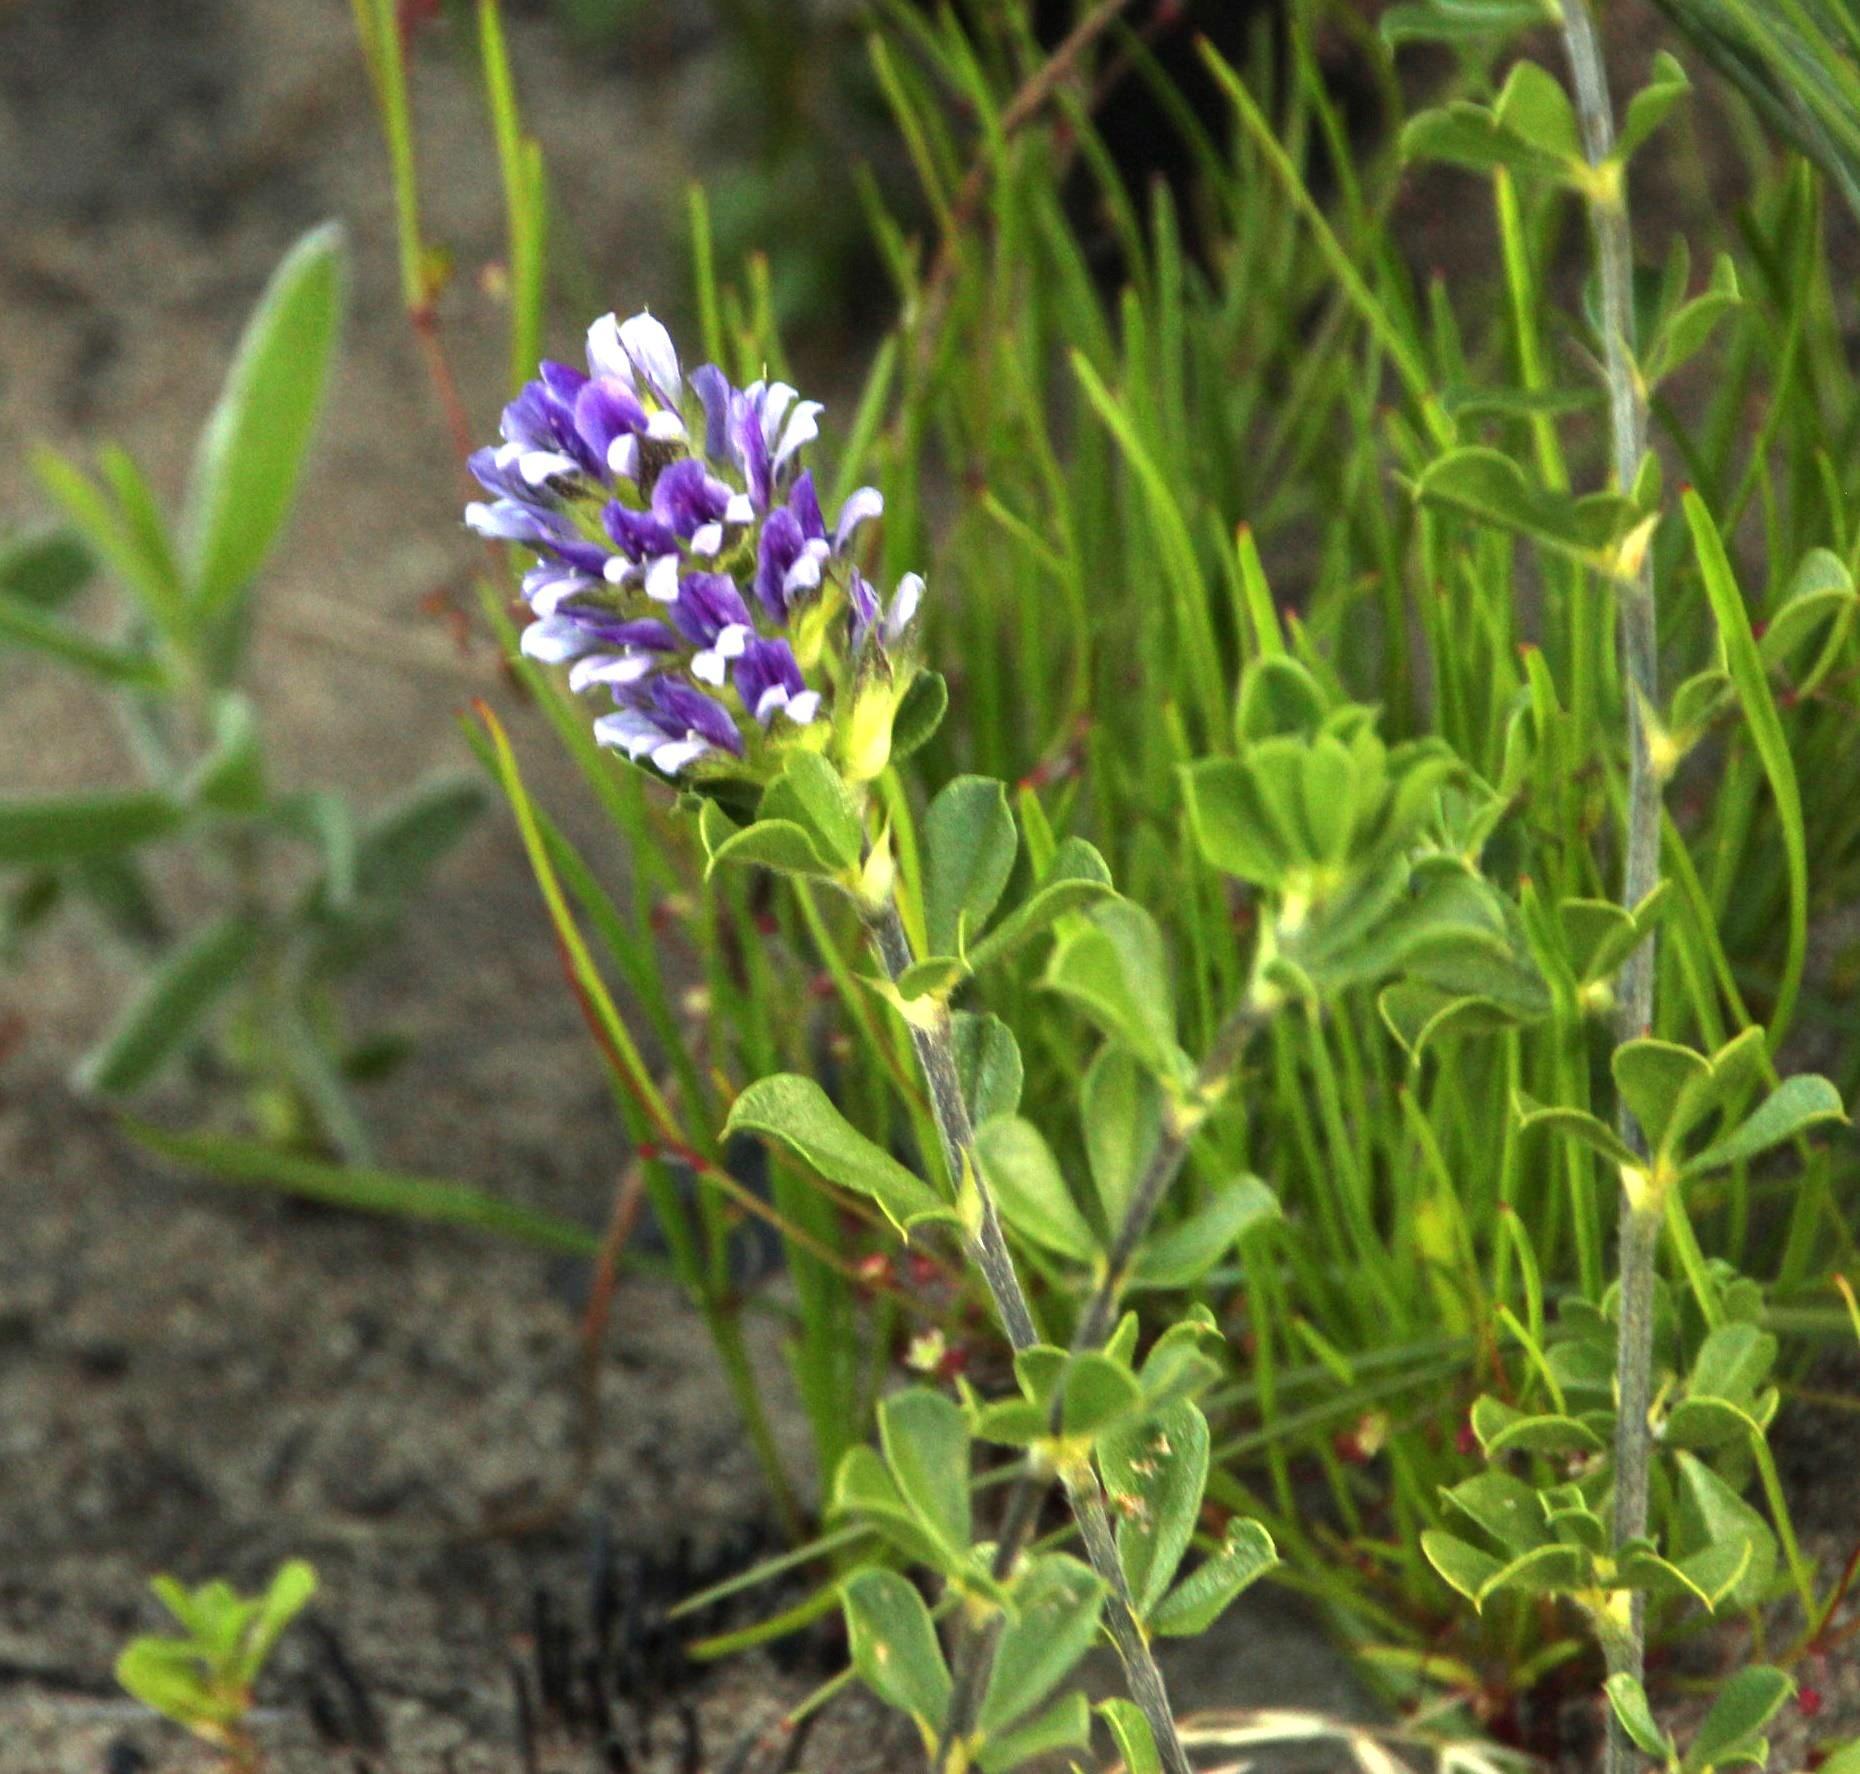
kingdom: Plantae
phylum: Tracheophyta
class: Magnoliopsida
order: Fabales
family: Fabaceae
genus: Psoralea
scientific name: Psoralea bracteolata
